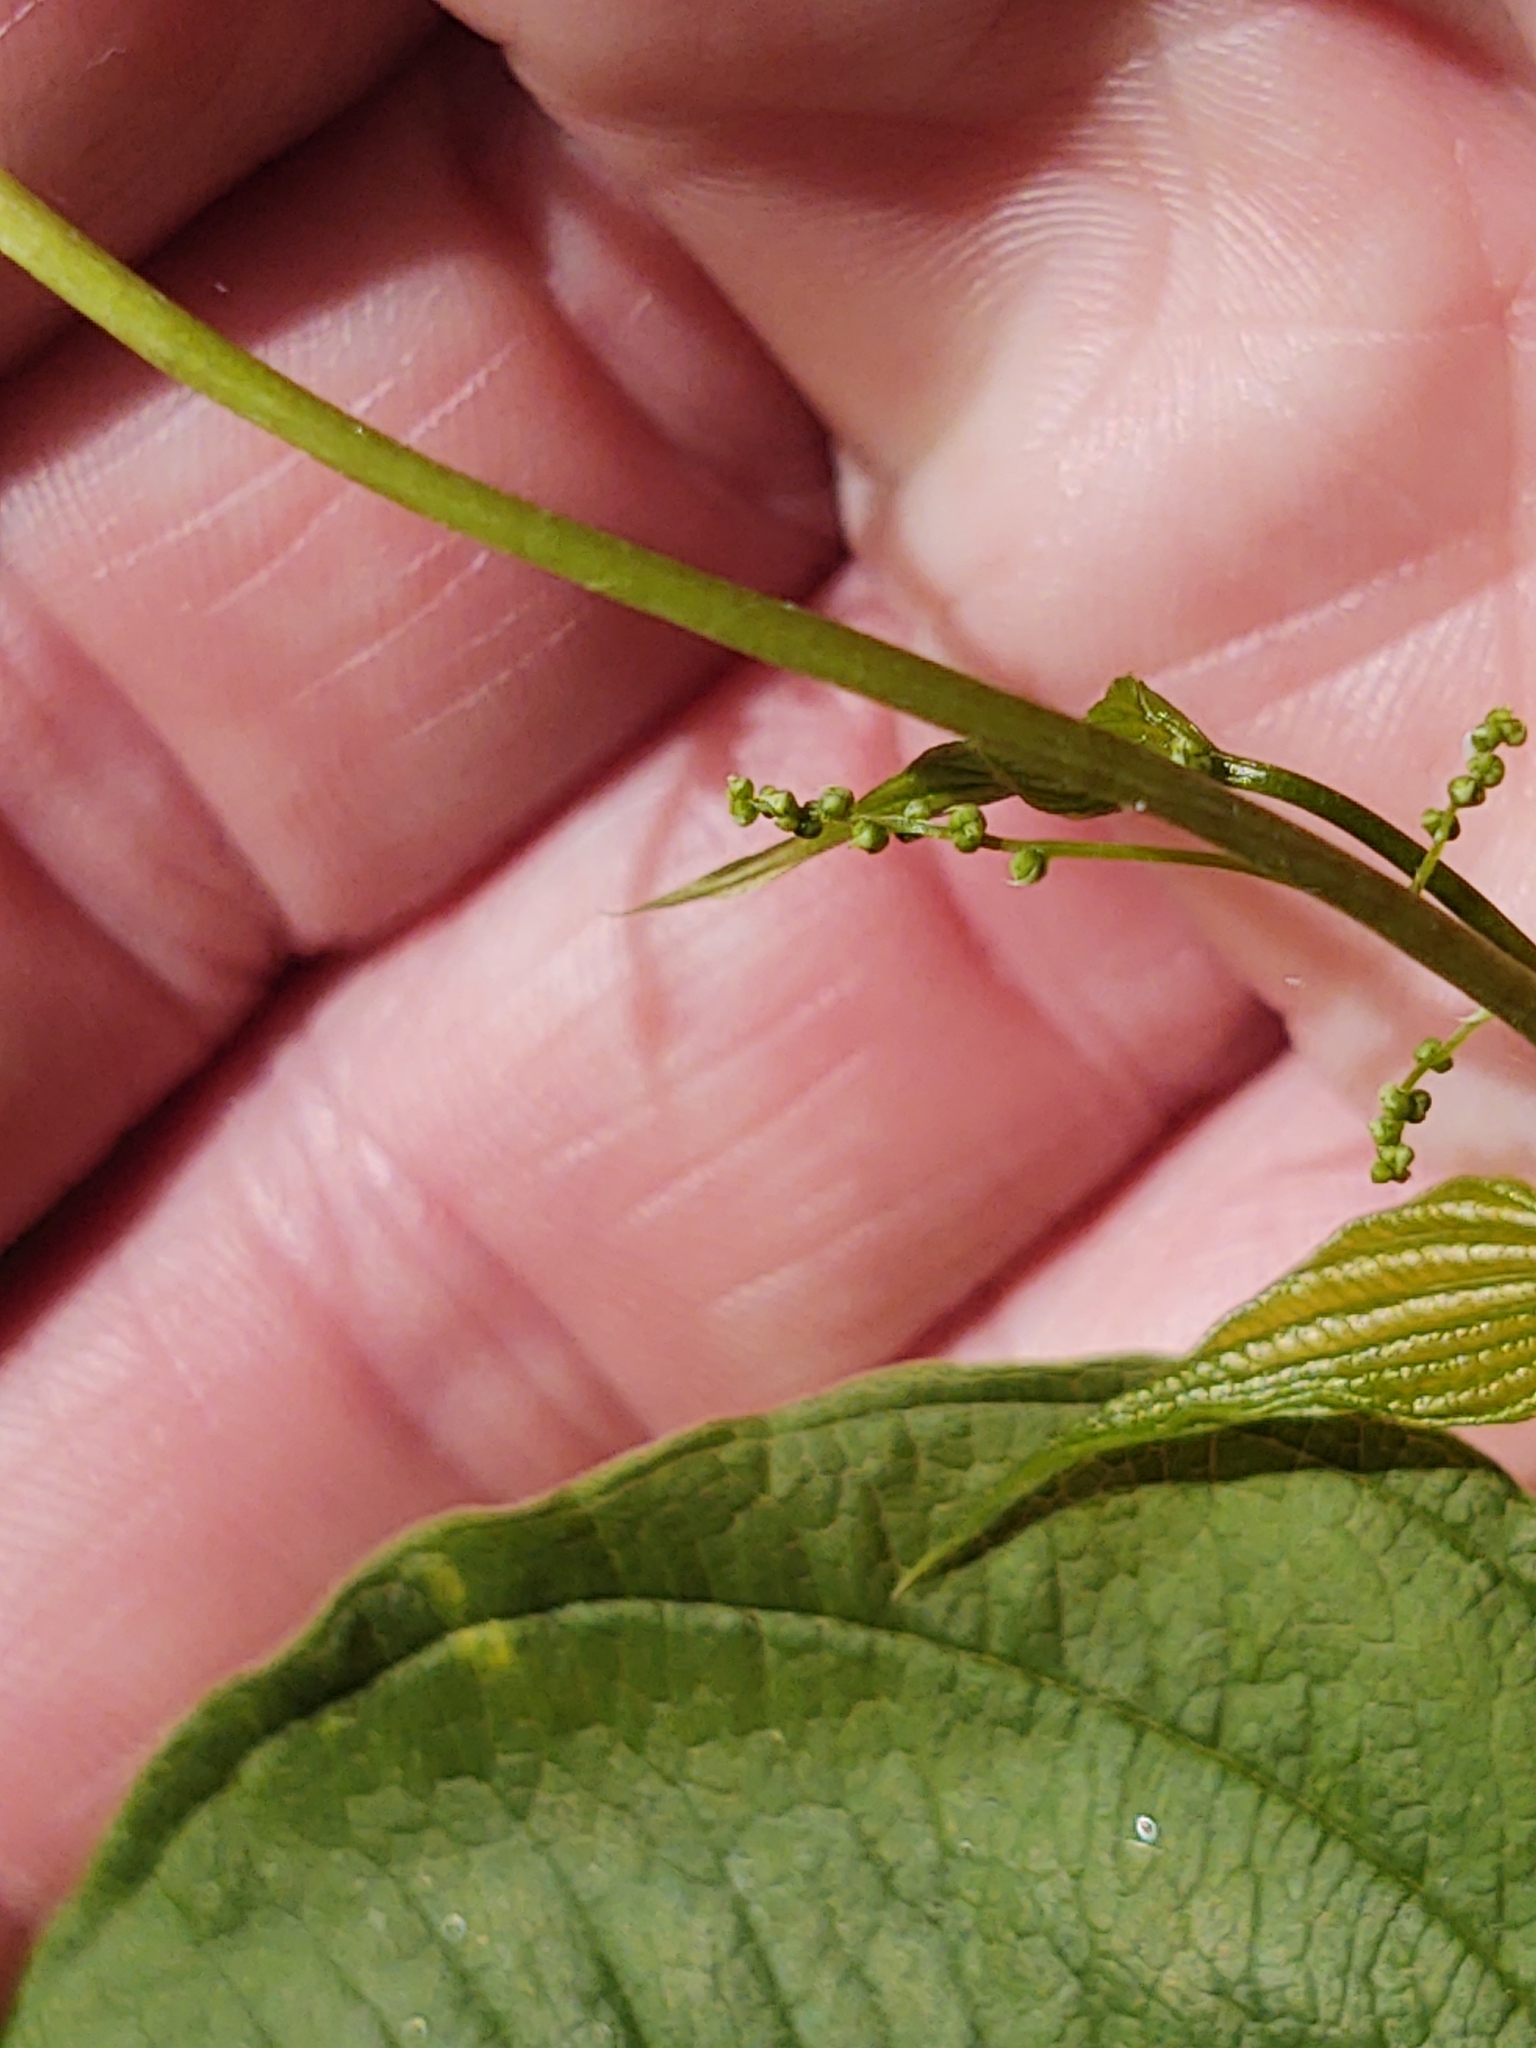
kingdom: Plantae
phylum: Tracheophyta
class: Liliopsida
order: Dioscoreales
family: Dioscoreaceae
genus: Dioscorea
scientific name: Dioscorea villosa
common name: Wild yam
